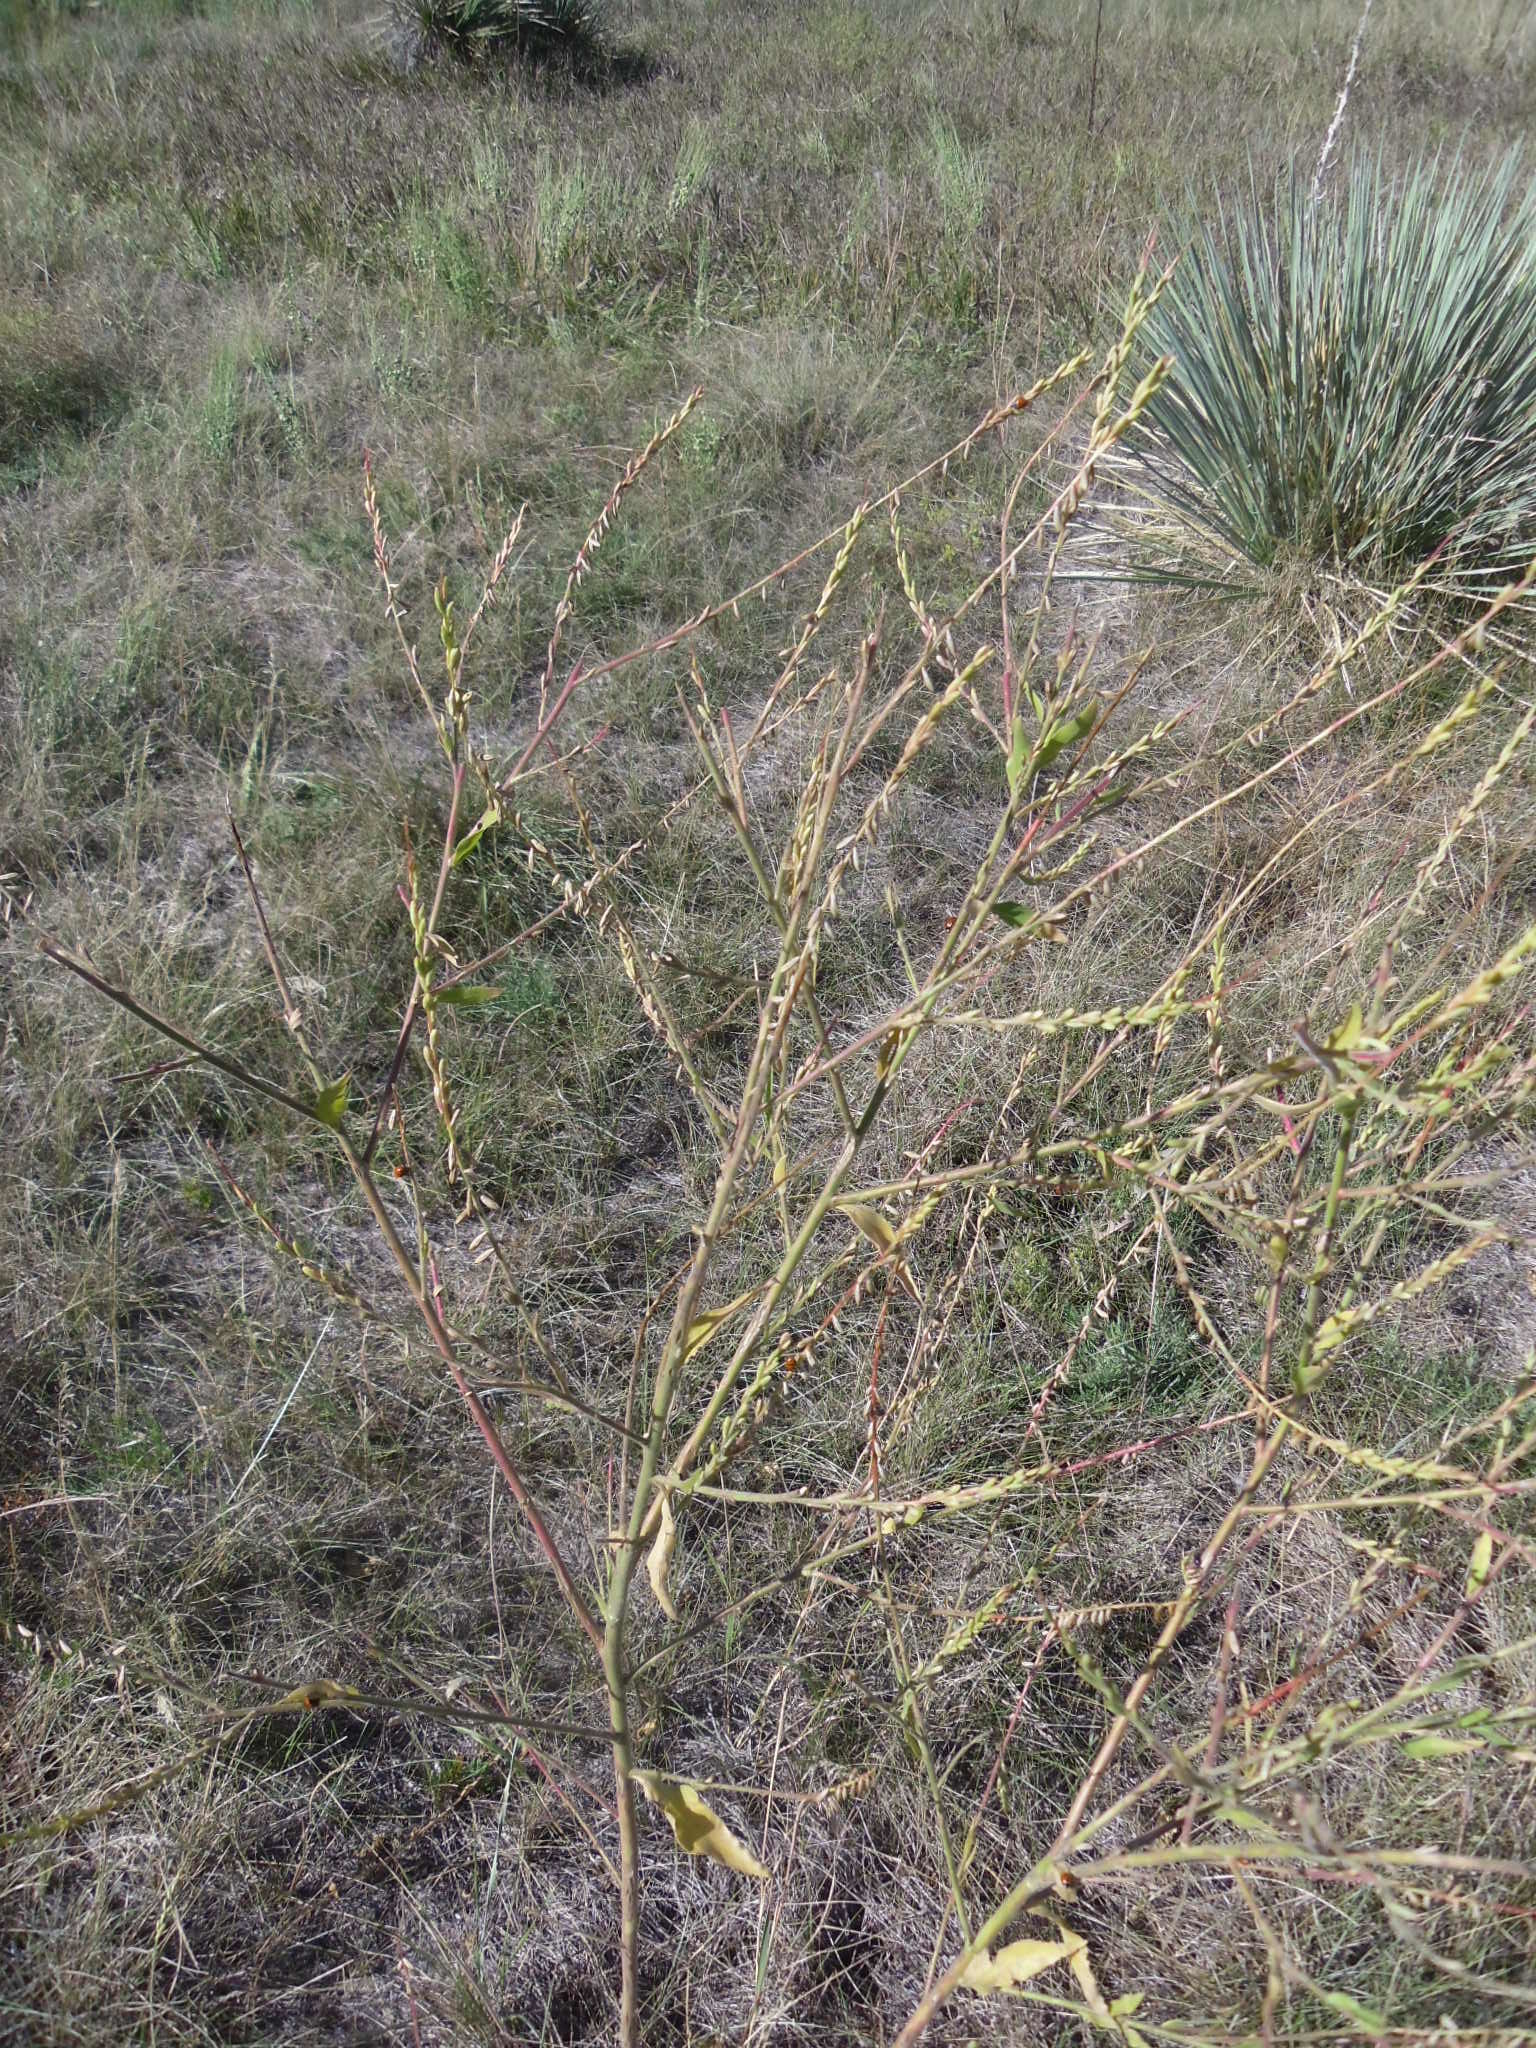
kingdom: Plantae
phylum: Tracheophyta
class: Magnoliopsida
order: Myrtales
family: Onagraceae
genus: Oenothera
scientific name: Oenothera curtiflora
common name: Velvetweed
